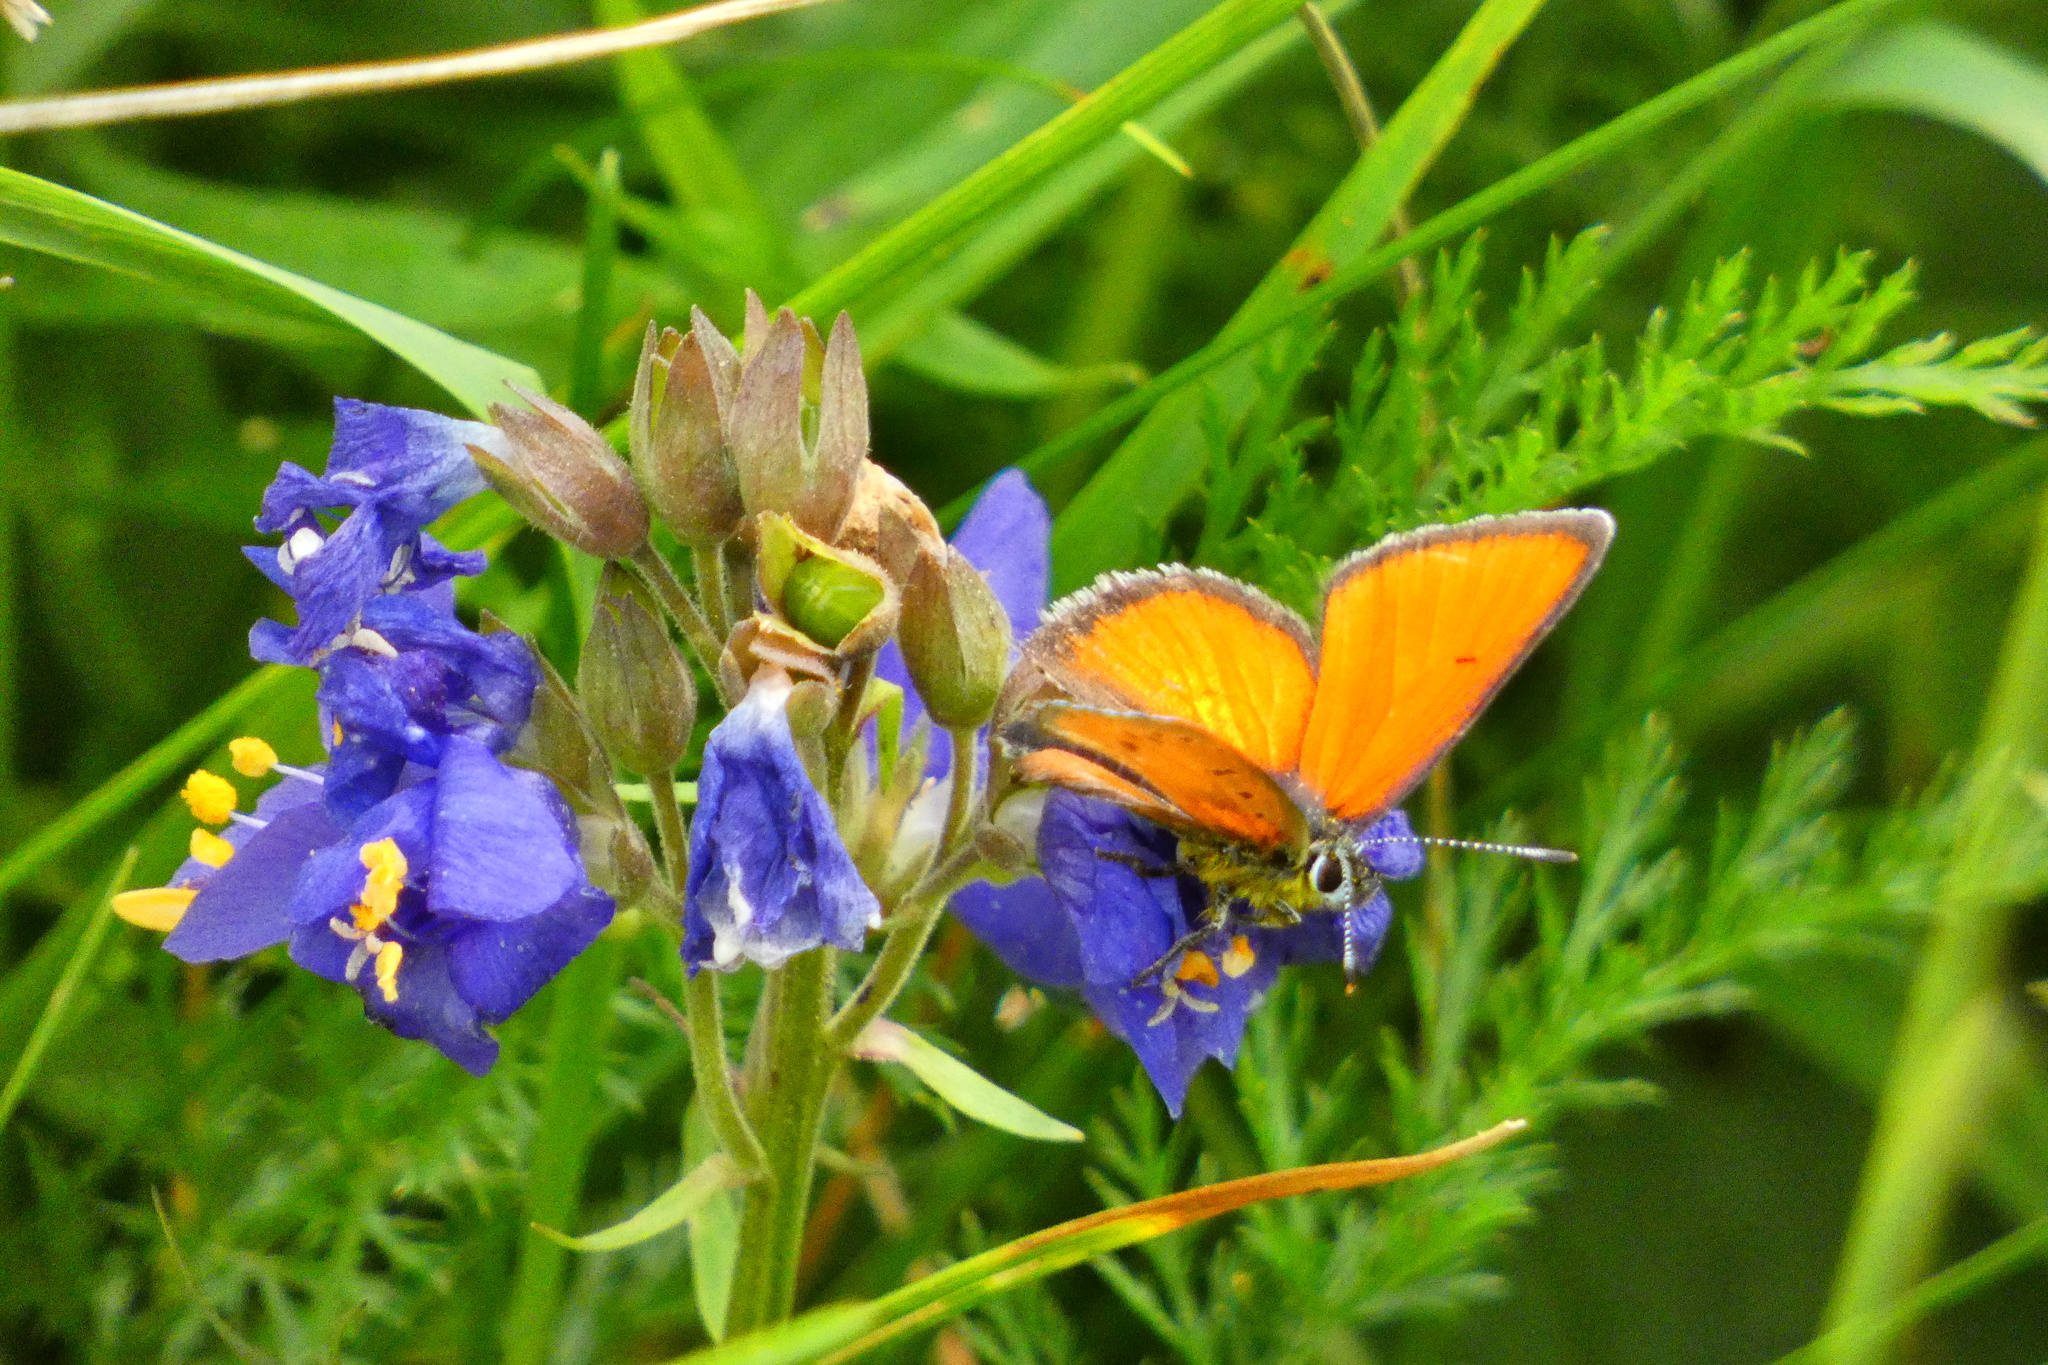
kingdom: Animalia
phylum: Arthropoda
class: Insecta
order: Lepidoptera
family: Lycaenidae
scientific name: Lycaenidae
